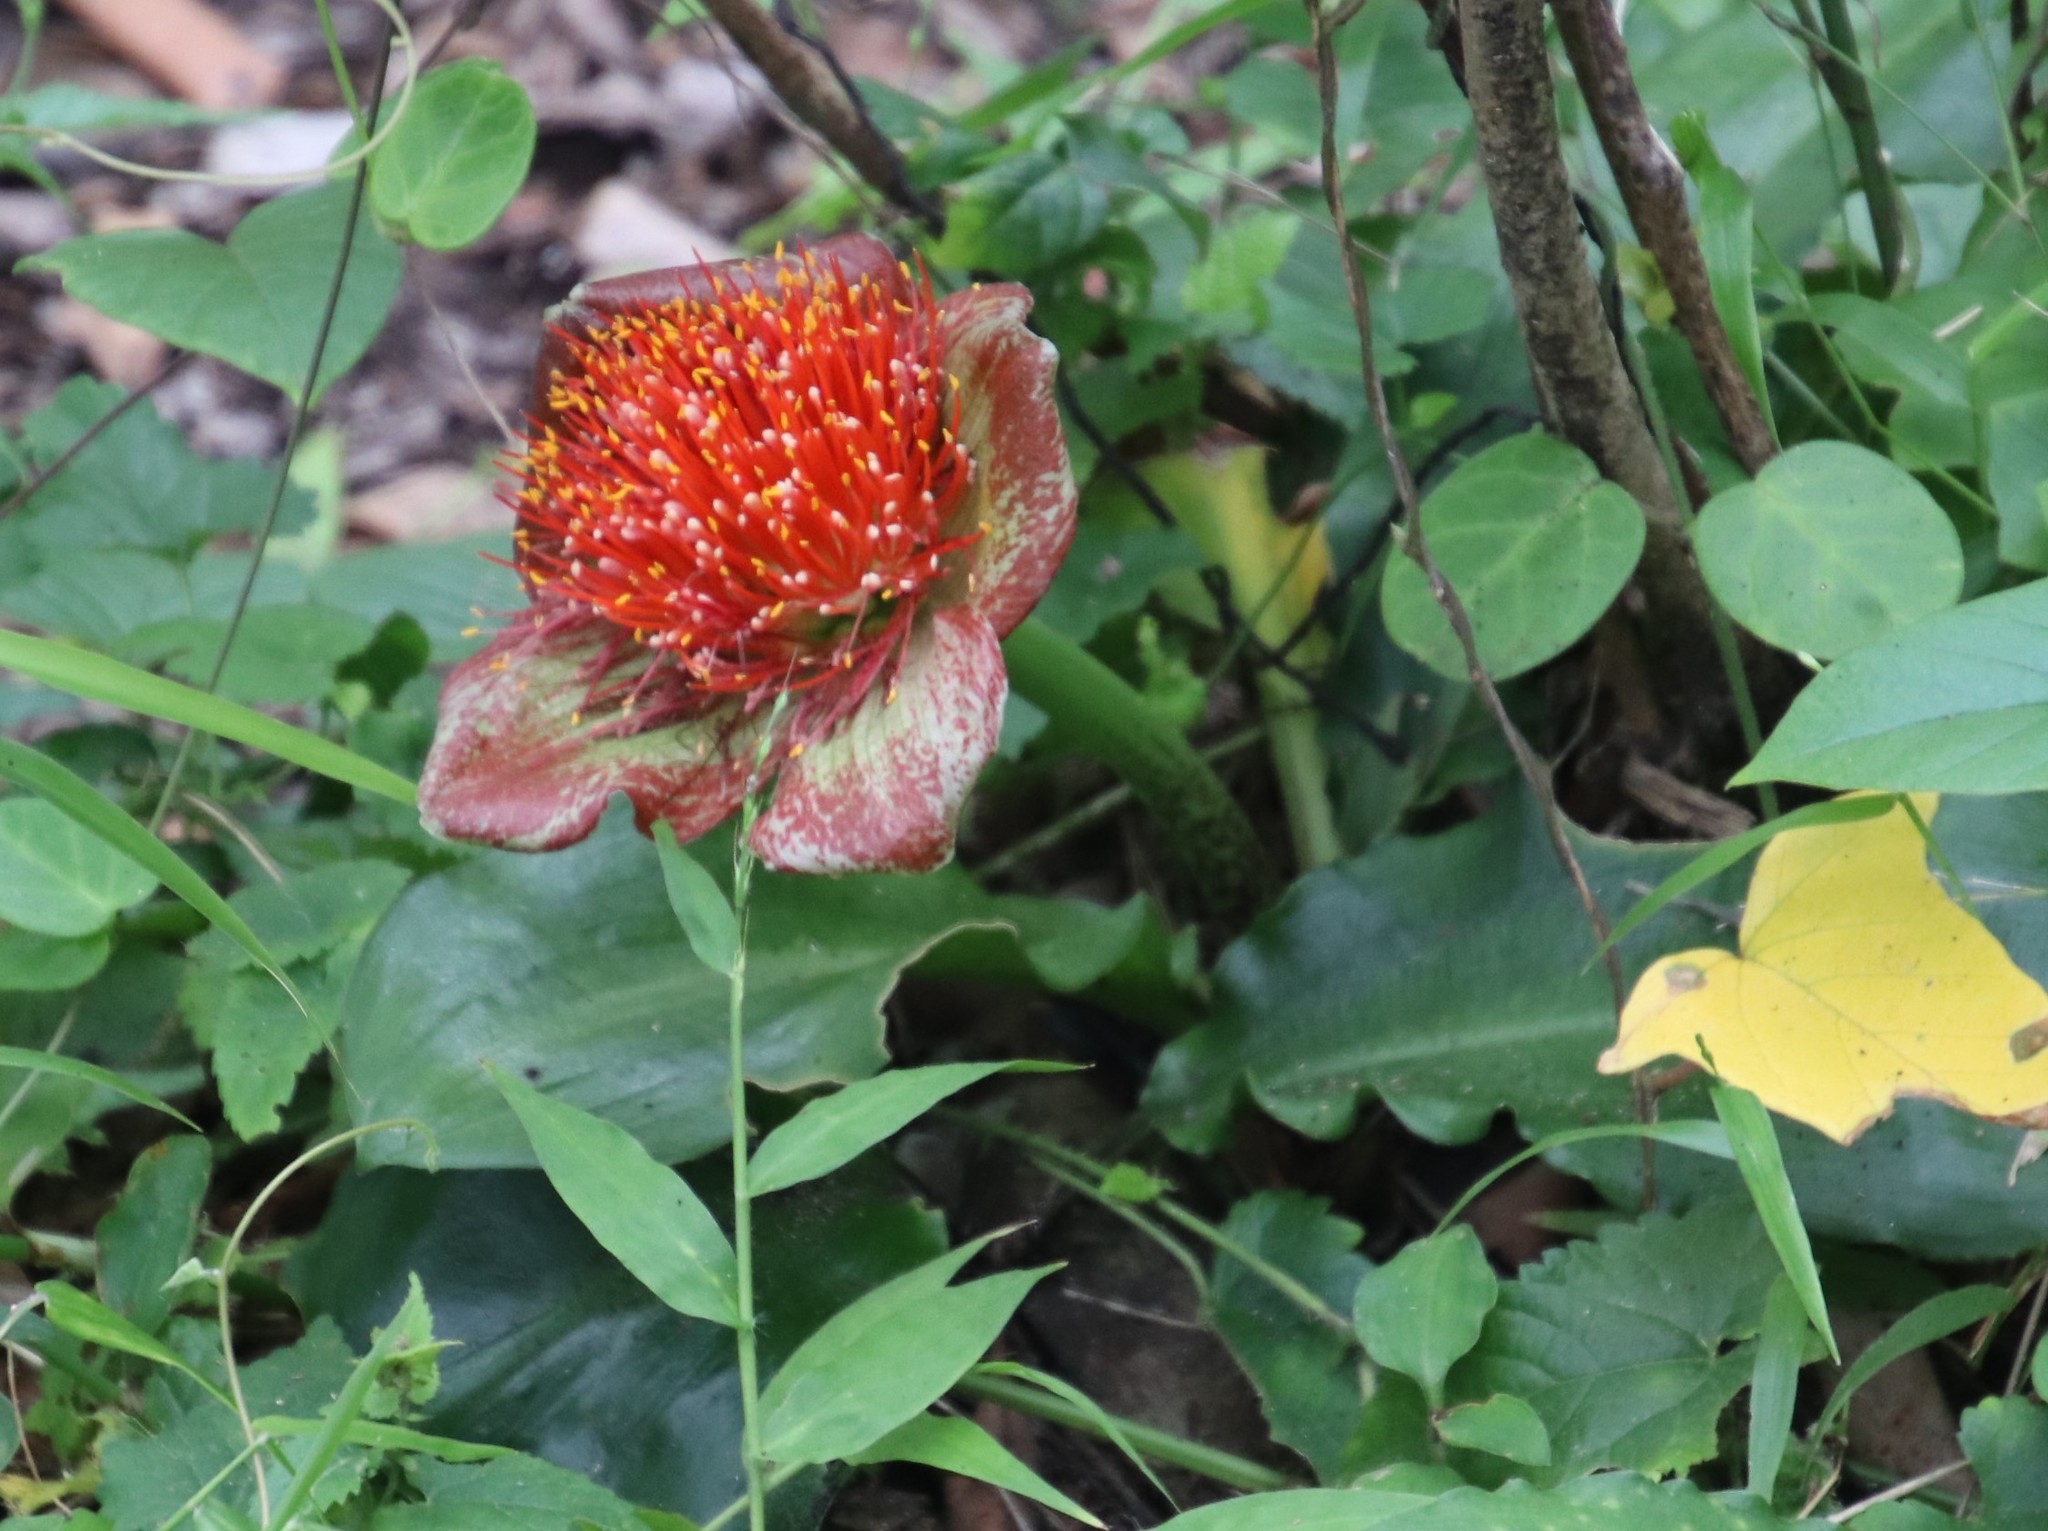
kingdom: Plantae
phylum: Tracheophyta
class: Liliopsida
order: Asparagales
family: Amaryllidaceae
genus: Scadoxus
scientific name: Scadoxus membranaceus
